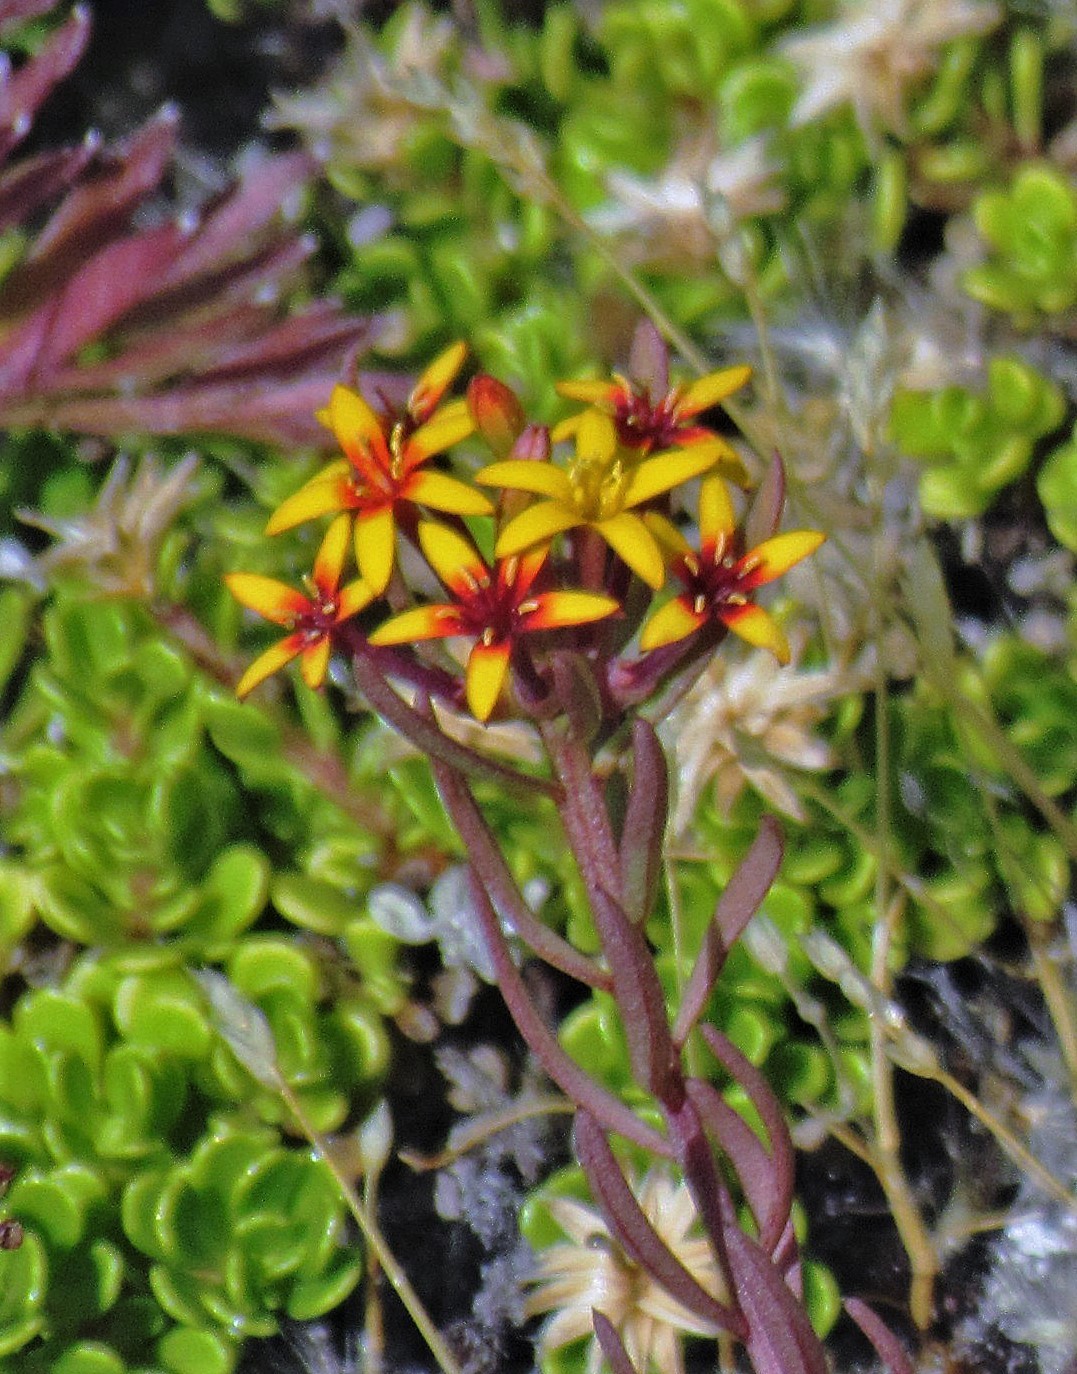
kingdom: Plantae
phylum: Tracheophyta
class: Magnoliopsida
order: Santalales
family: Schoepfiaceae
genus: Quinchamalium
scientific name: Quinchamalium chilense
